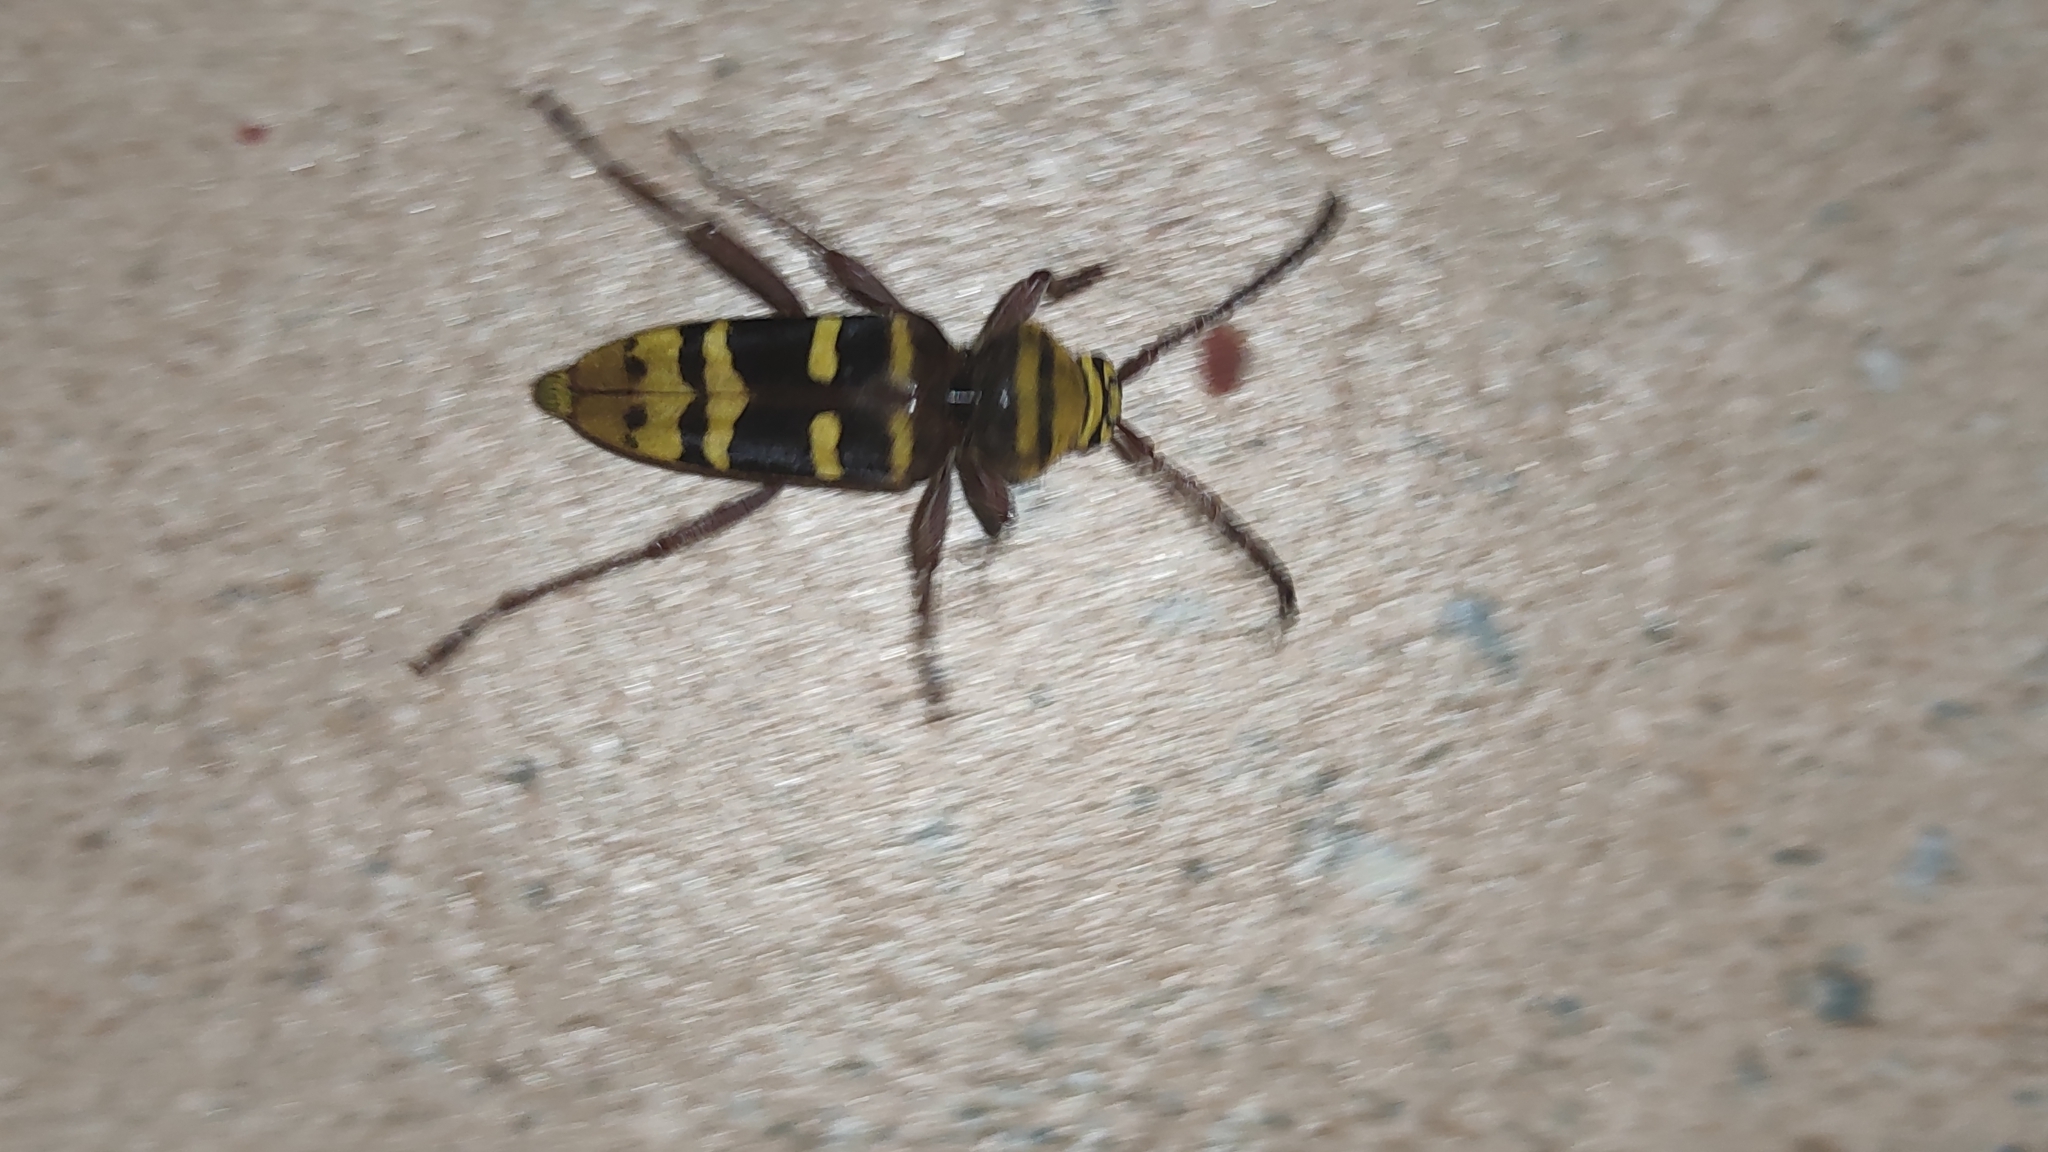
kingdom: Animalia
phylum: Arthropoda
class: Insecta
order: Coleoptera
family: Cerambycidae
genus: Plagionotus
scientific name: Plagionotus detritus
